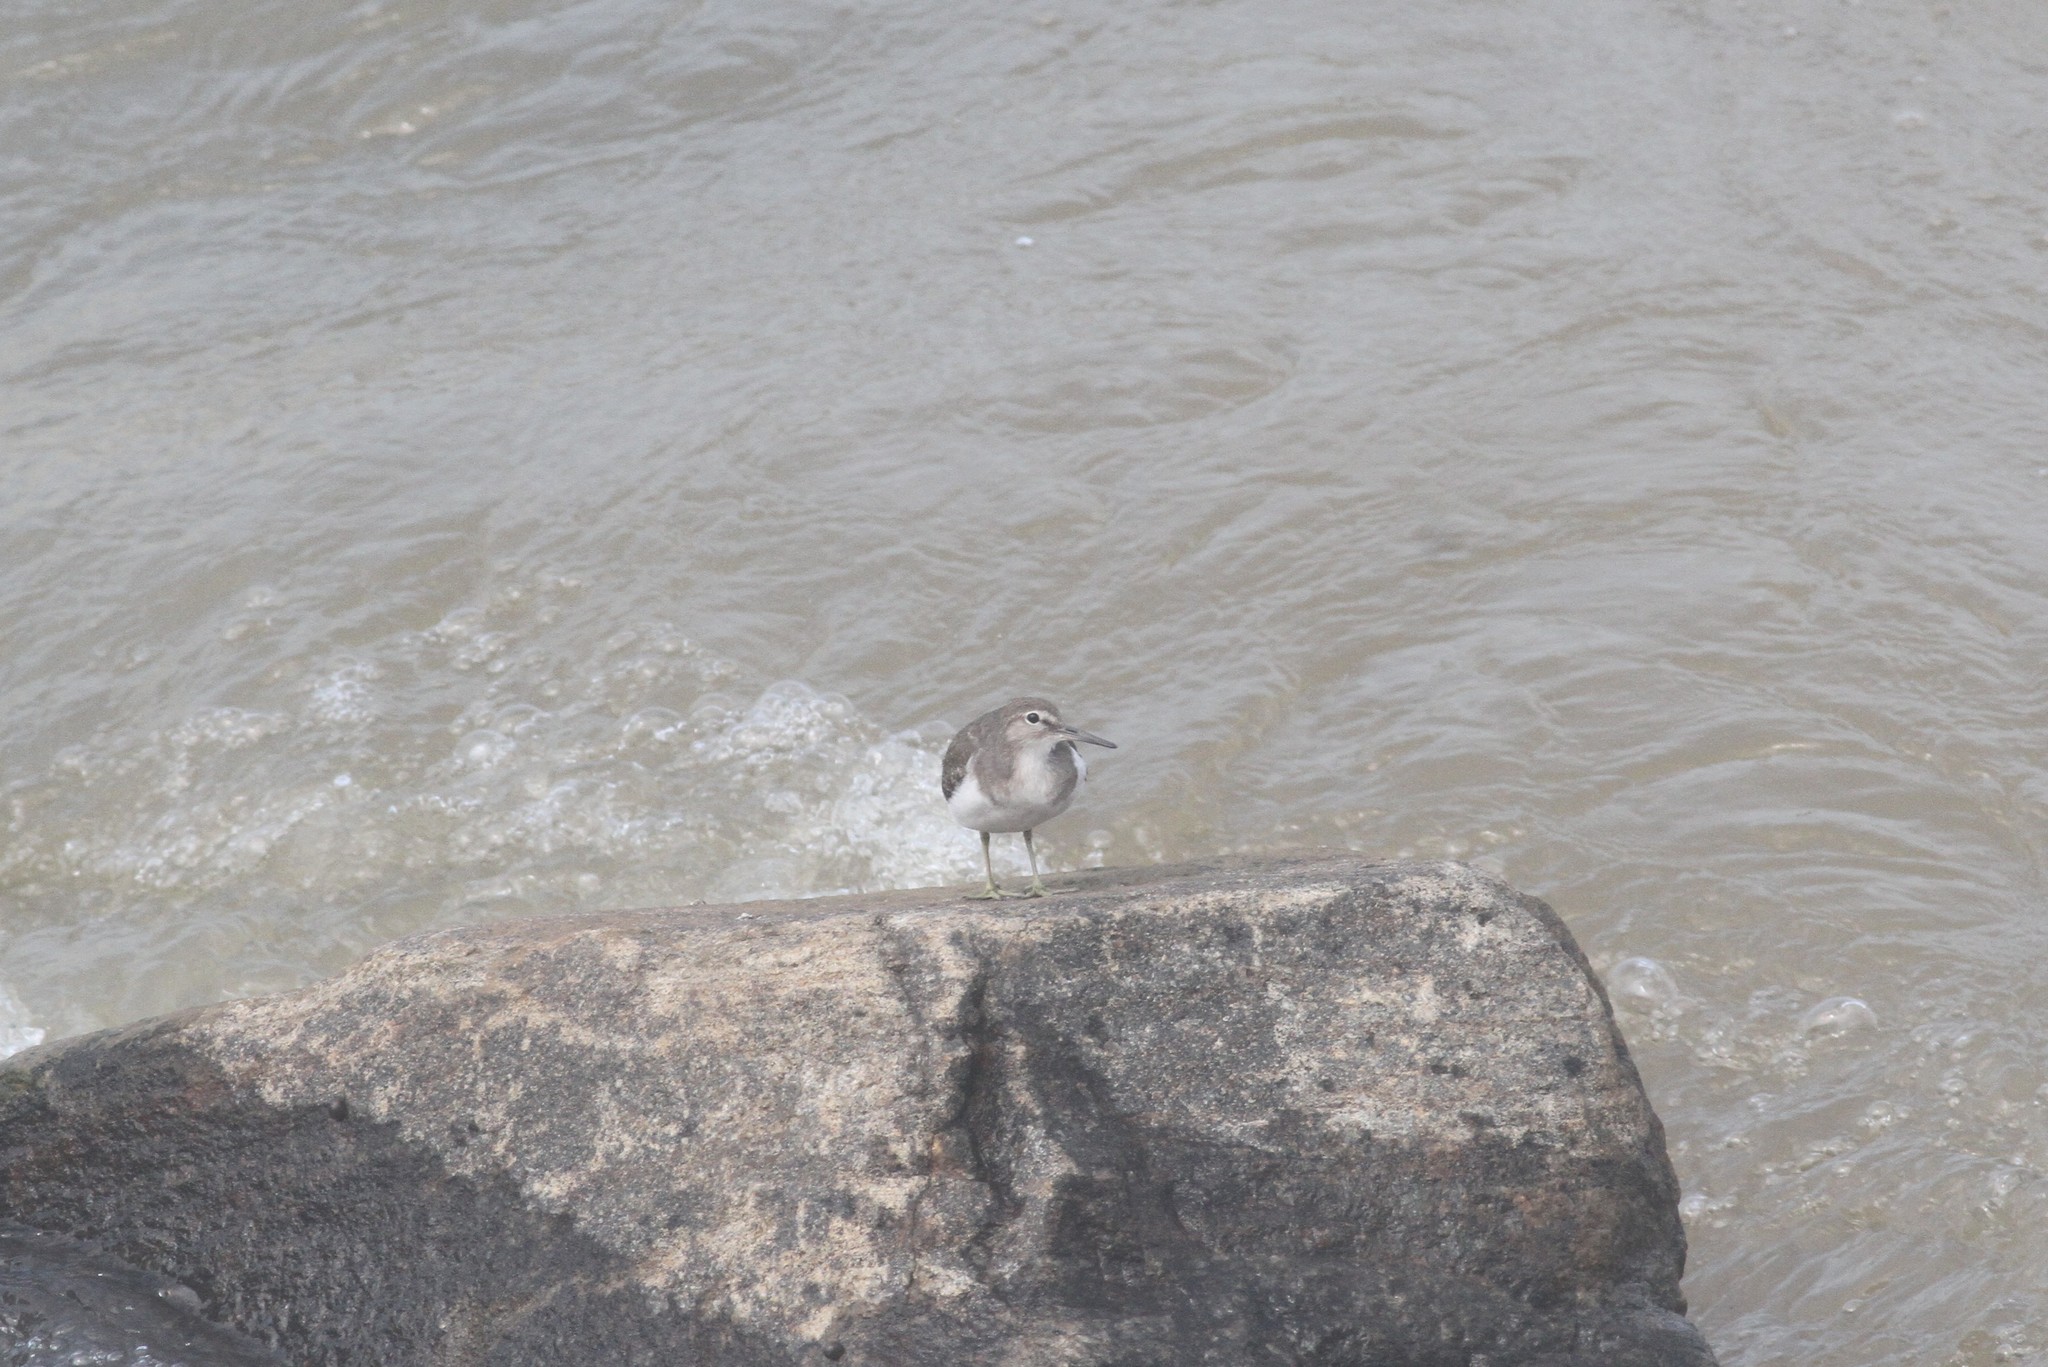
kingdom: Animalia
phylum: Chordata
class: Aves
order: Charadriiformes
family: Scolopacidae
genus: Actitis
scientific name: Actitis hypoleucos
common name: Common sandpiper
